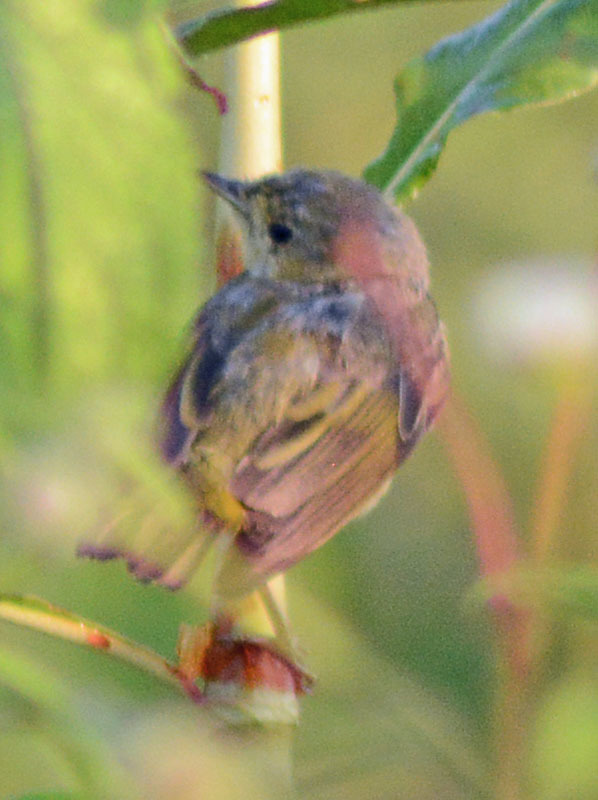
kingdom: Animalia
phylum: Chordata
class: Aves
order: Passeriformes
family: Parulidae
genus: Setophaga
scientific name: Setophaga petechia
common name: Yellow warbler
